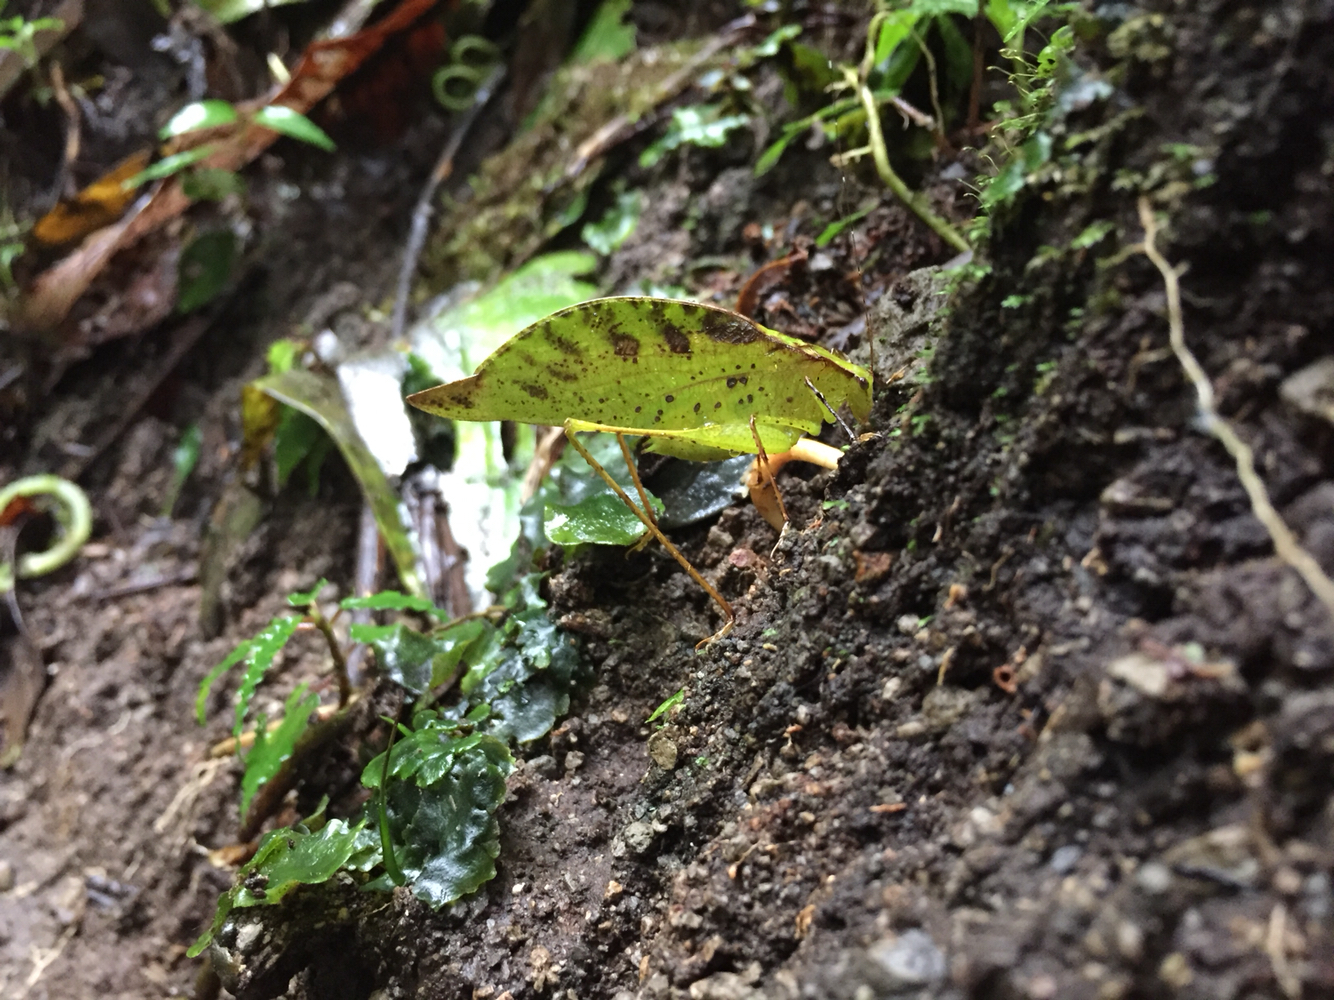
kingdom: Animalia
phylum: Arthropoda
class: Insecta
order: Orthoptera
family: Tettigoniidae
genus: Orophus
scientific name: Orophus tessellatus
